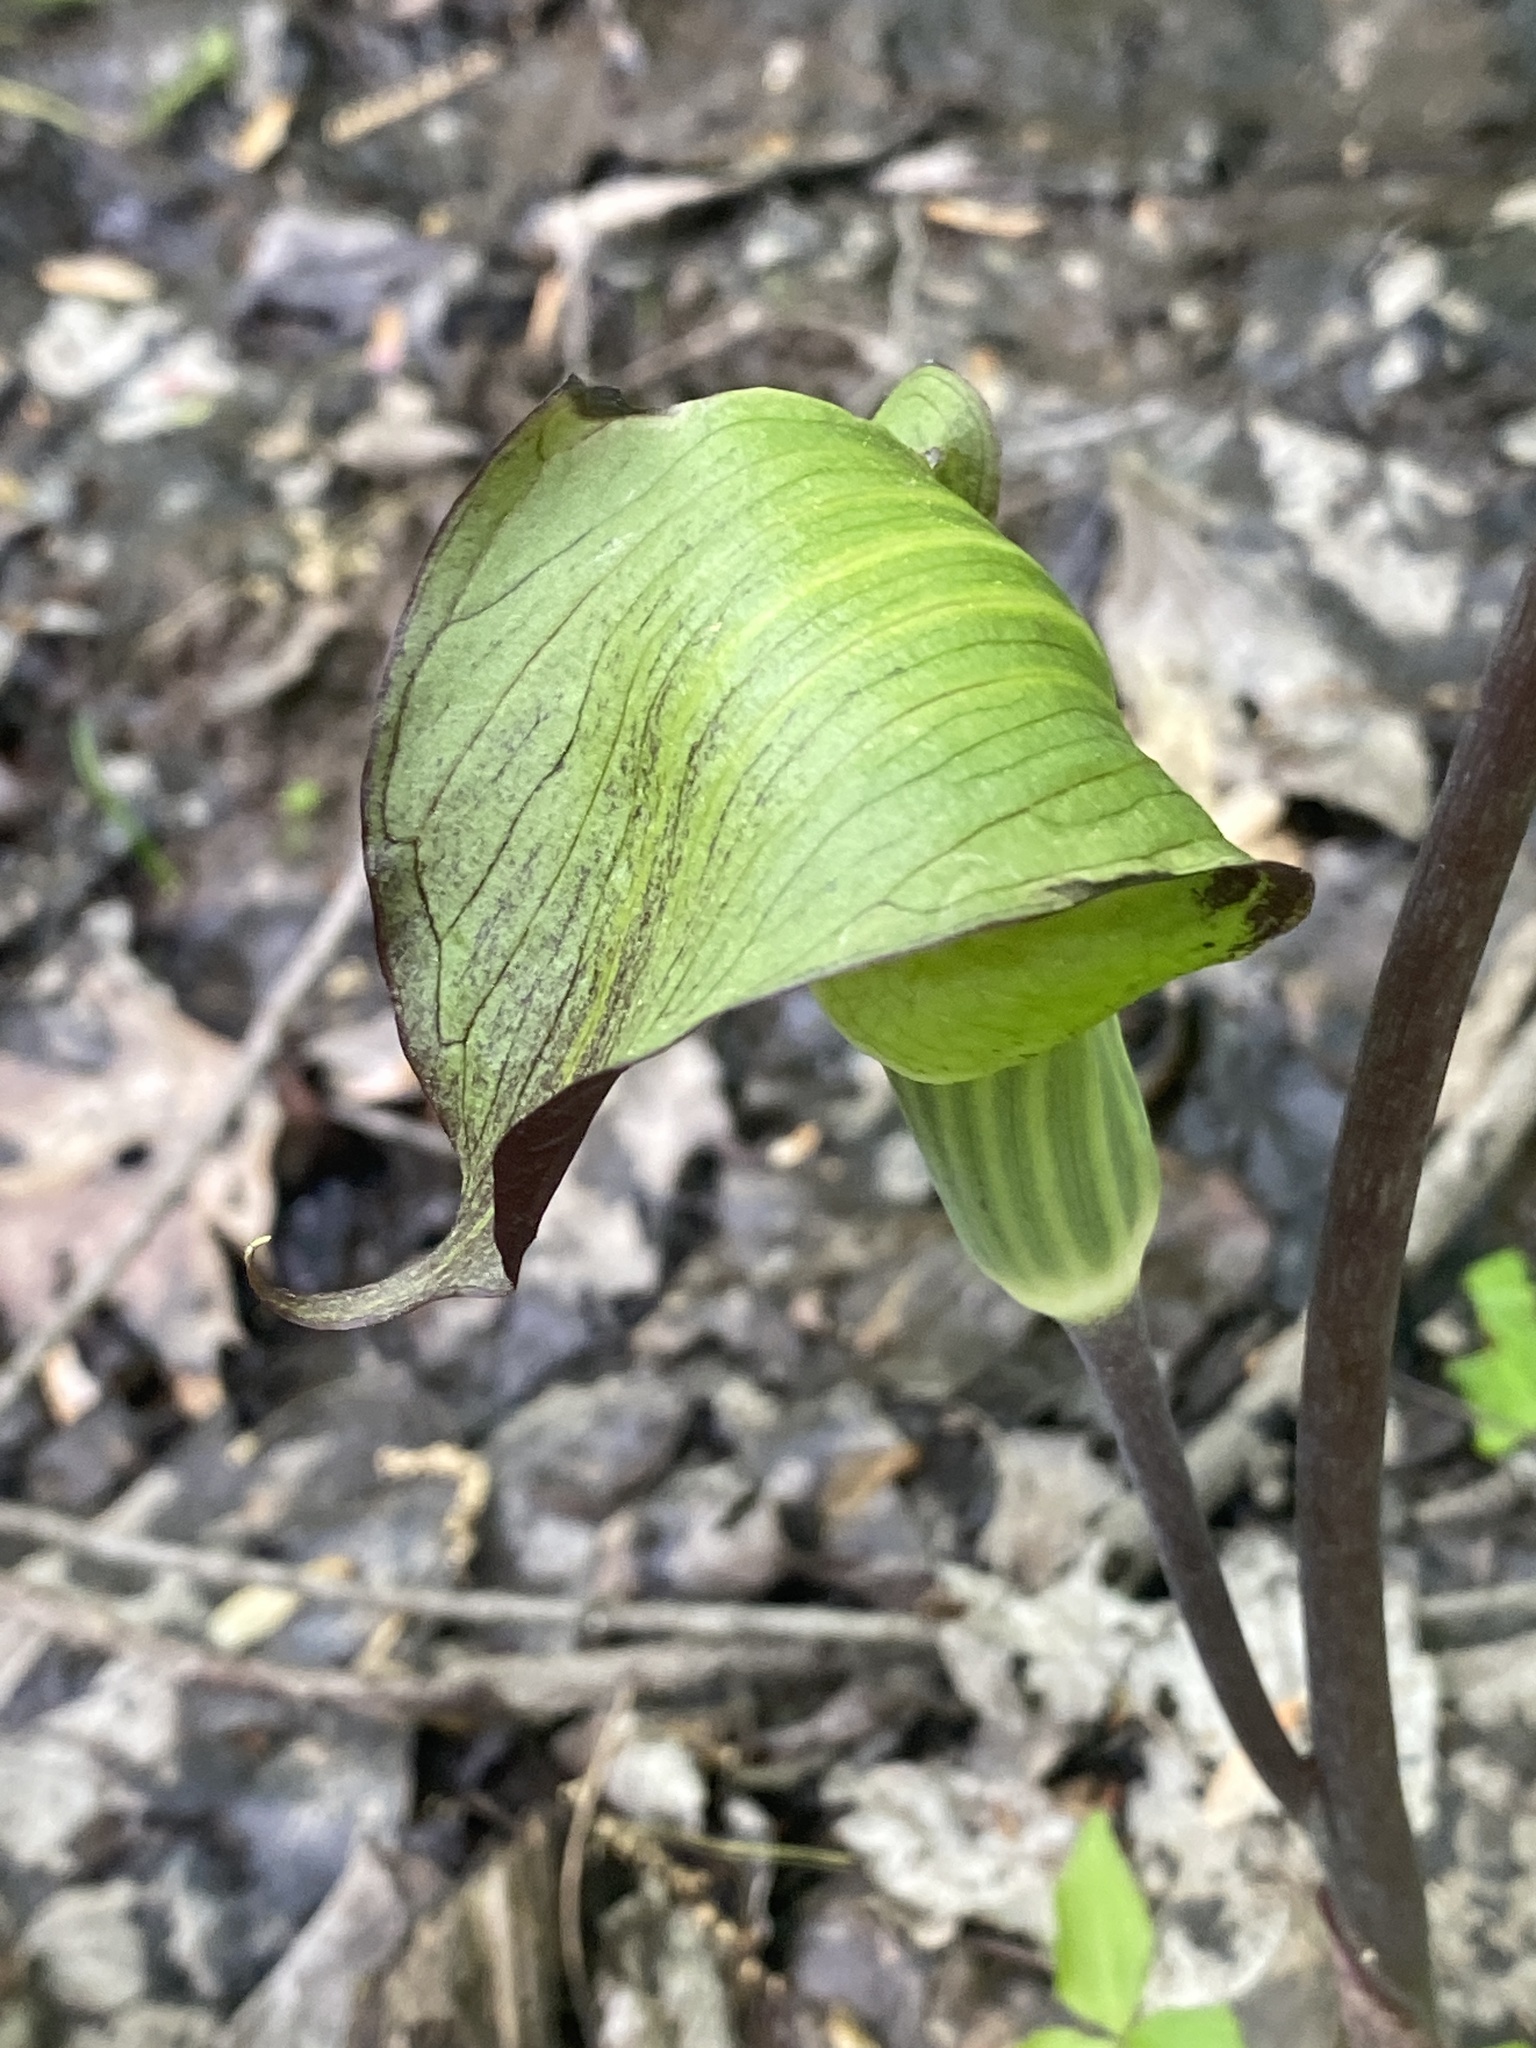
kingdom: Plantae
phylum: Tracheophyta
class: Liliopsida
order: Alismatales
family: Araceae
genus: Arisaema
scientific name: Arisaema triphyllum
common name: Jack-in-the-pulpit
